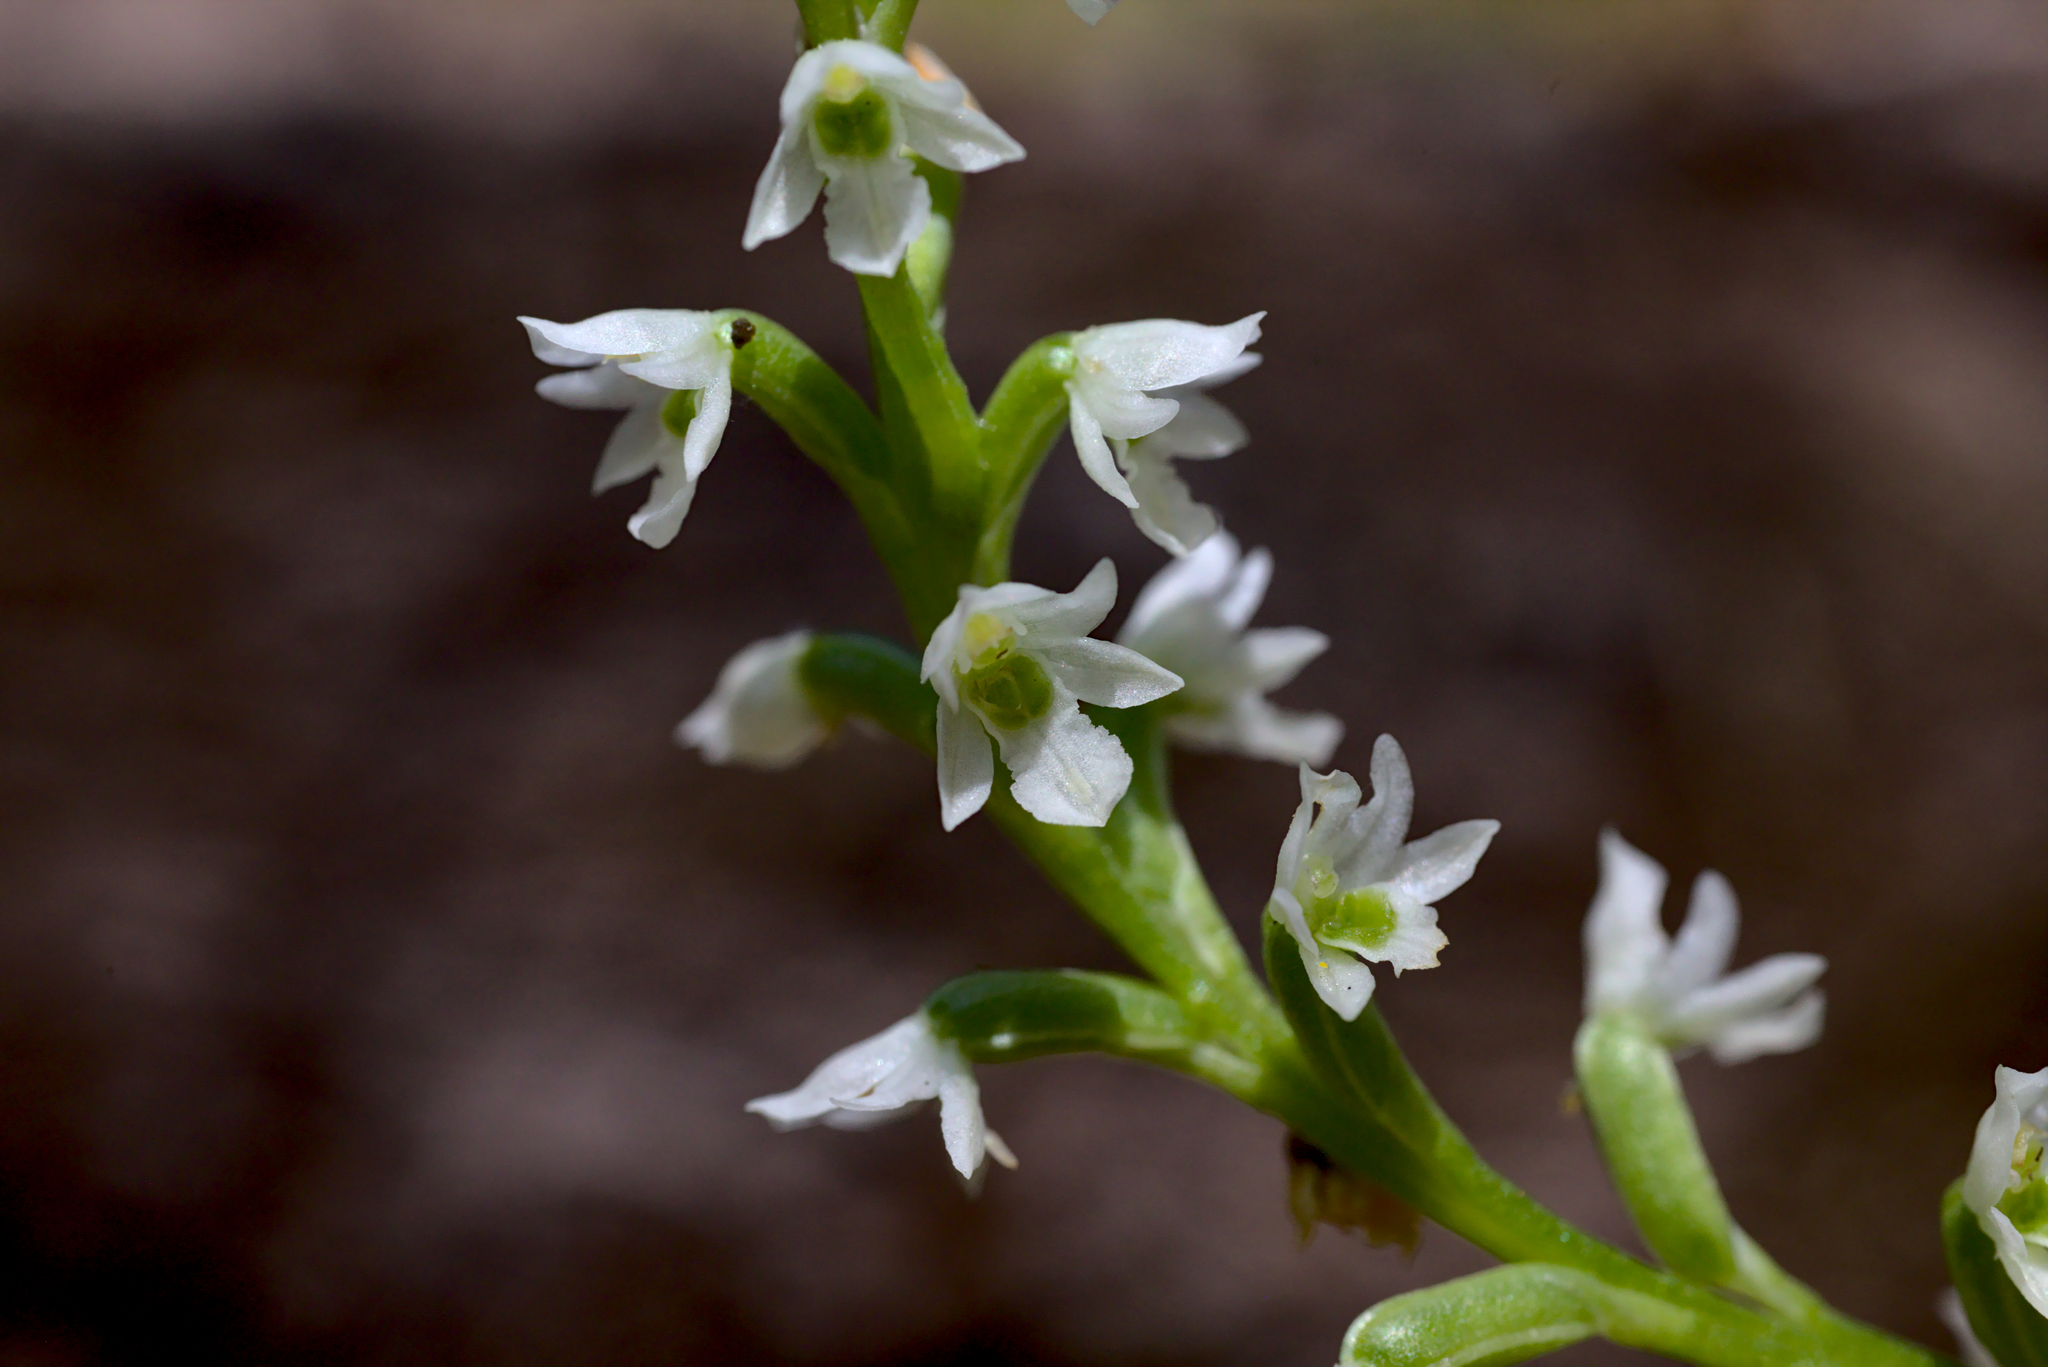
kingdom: Plantae
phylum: Tracheophyta
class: Liliopsida
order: Asparagales
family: Orchidaceae
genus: Microtis
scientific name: Microtis pulchella
